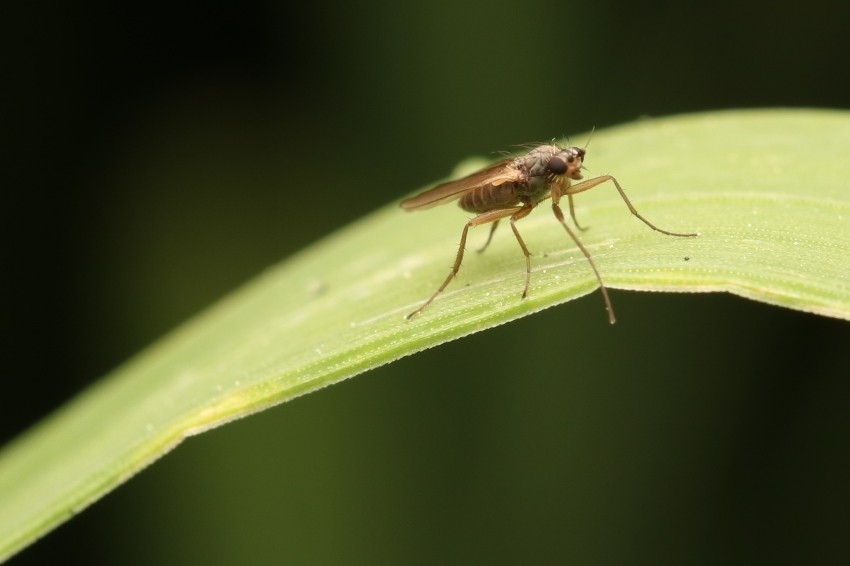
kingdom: Animalia
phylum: Arthropoda
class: Insecta
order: Diptera
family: Lonchopteridae
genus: Lonchoptera
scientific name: Lonchoptera bifurcata
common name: Spear-winged fly
